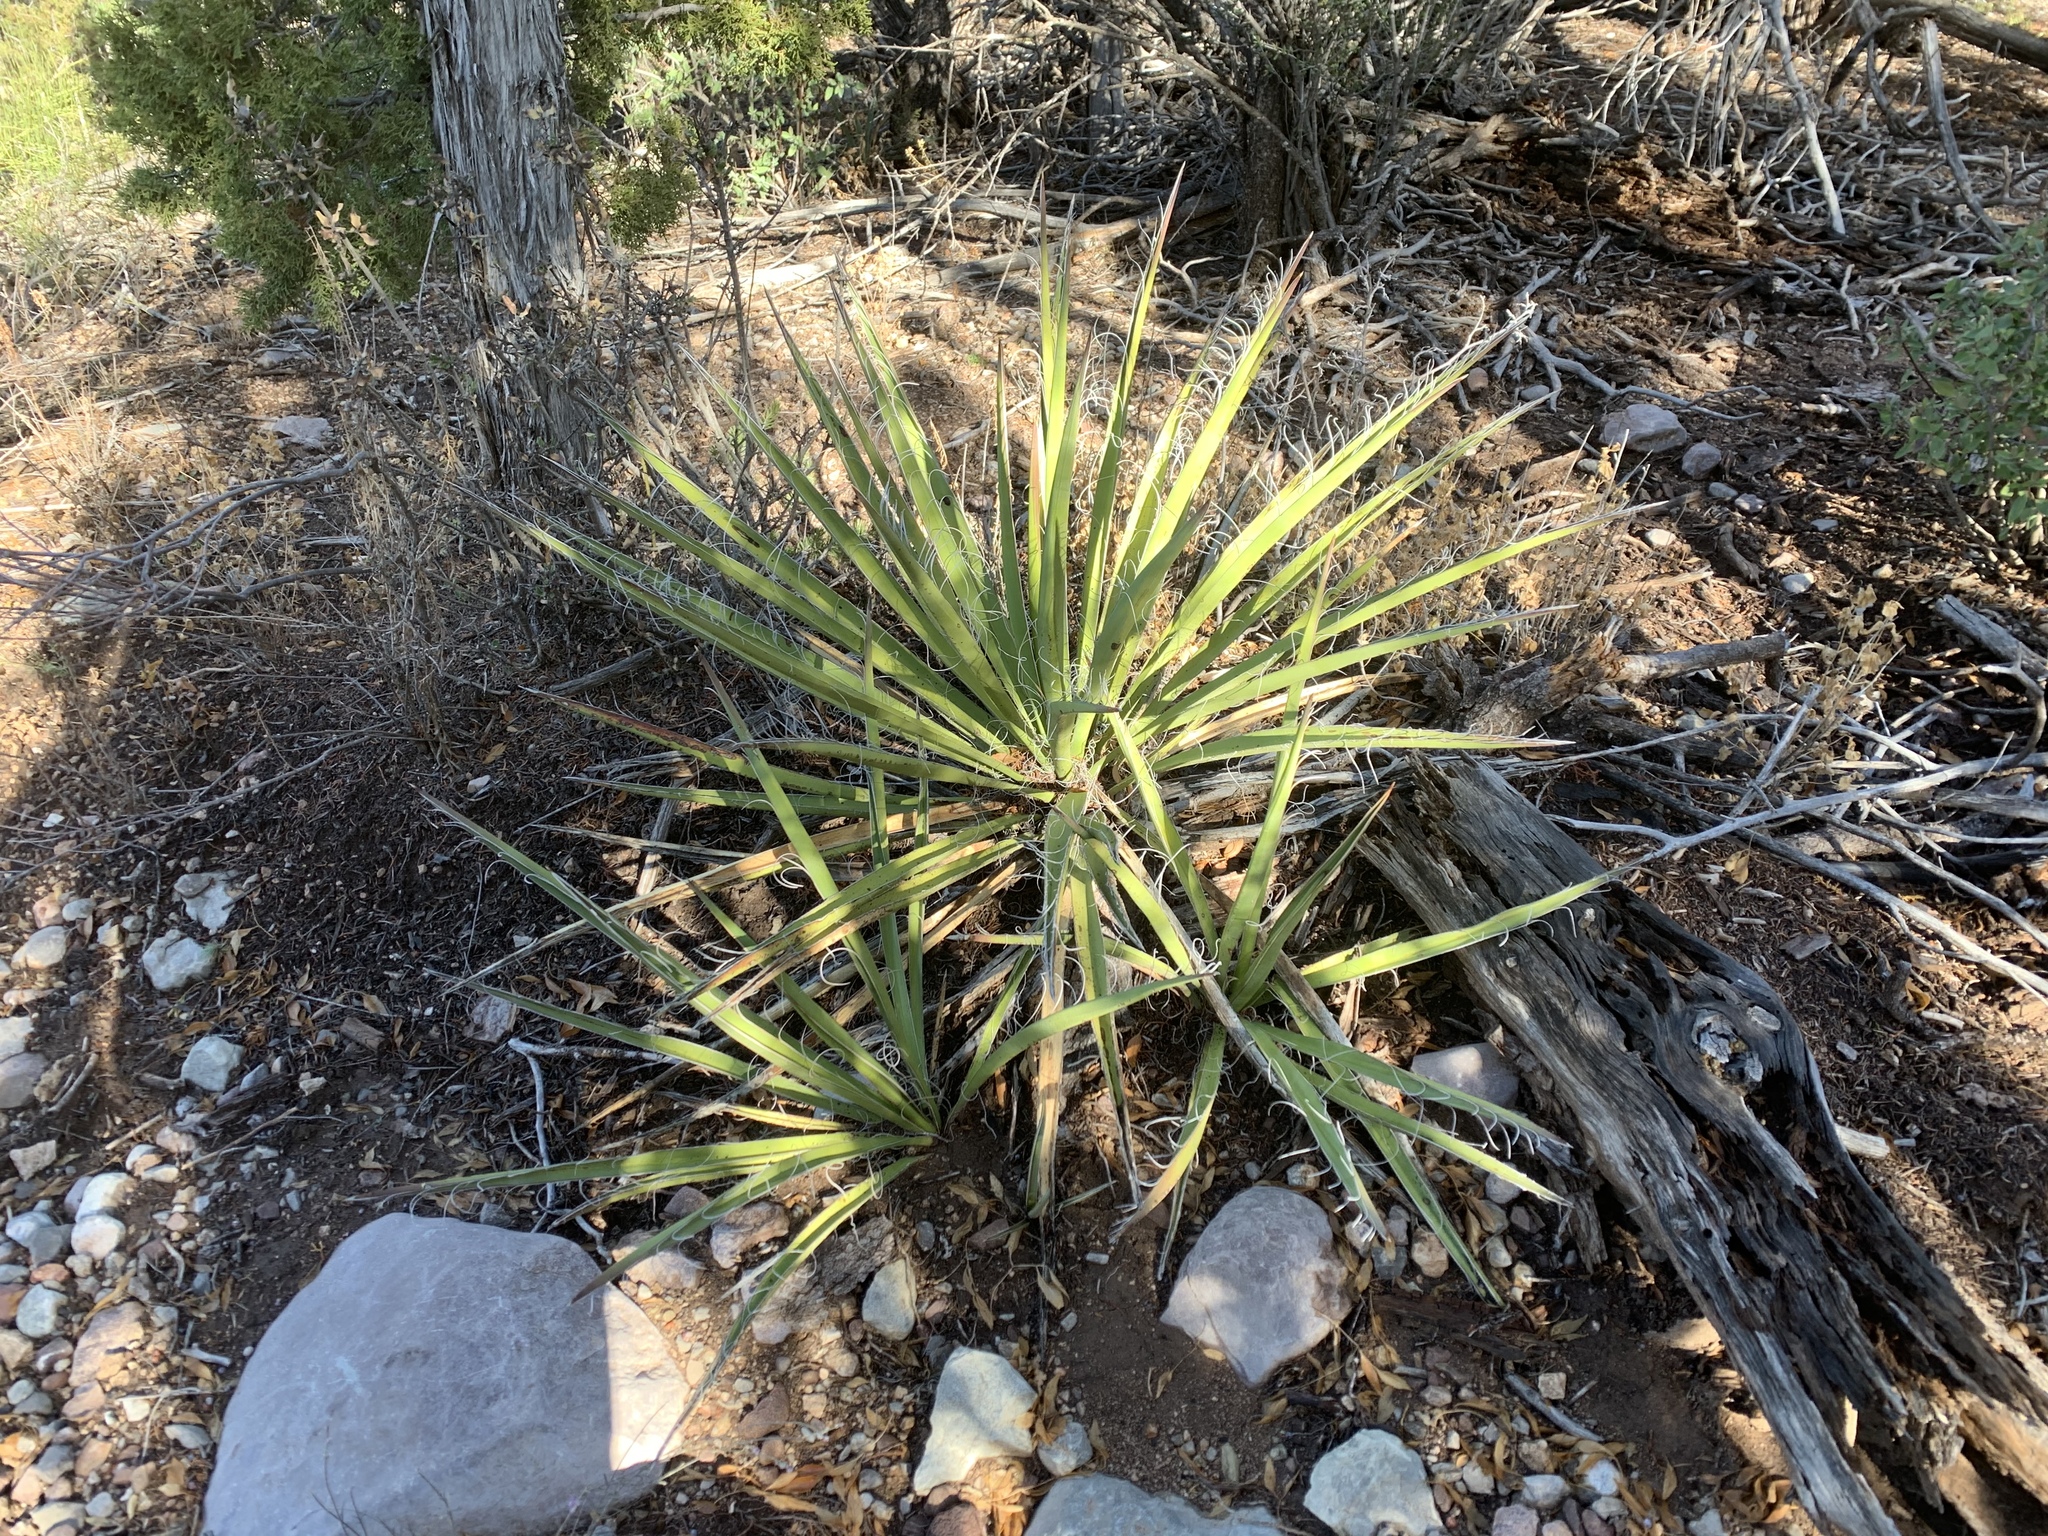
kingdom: Plantae
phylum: Tracheophyta
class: Liliopsida
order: Asparagales
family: Asparagaceae
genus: Yucca
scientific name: Yucca baccata
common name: Banana yucca
